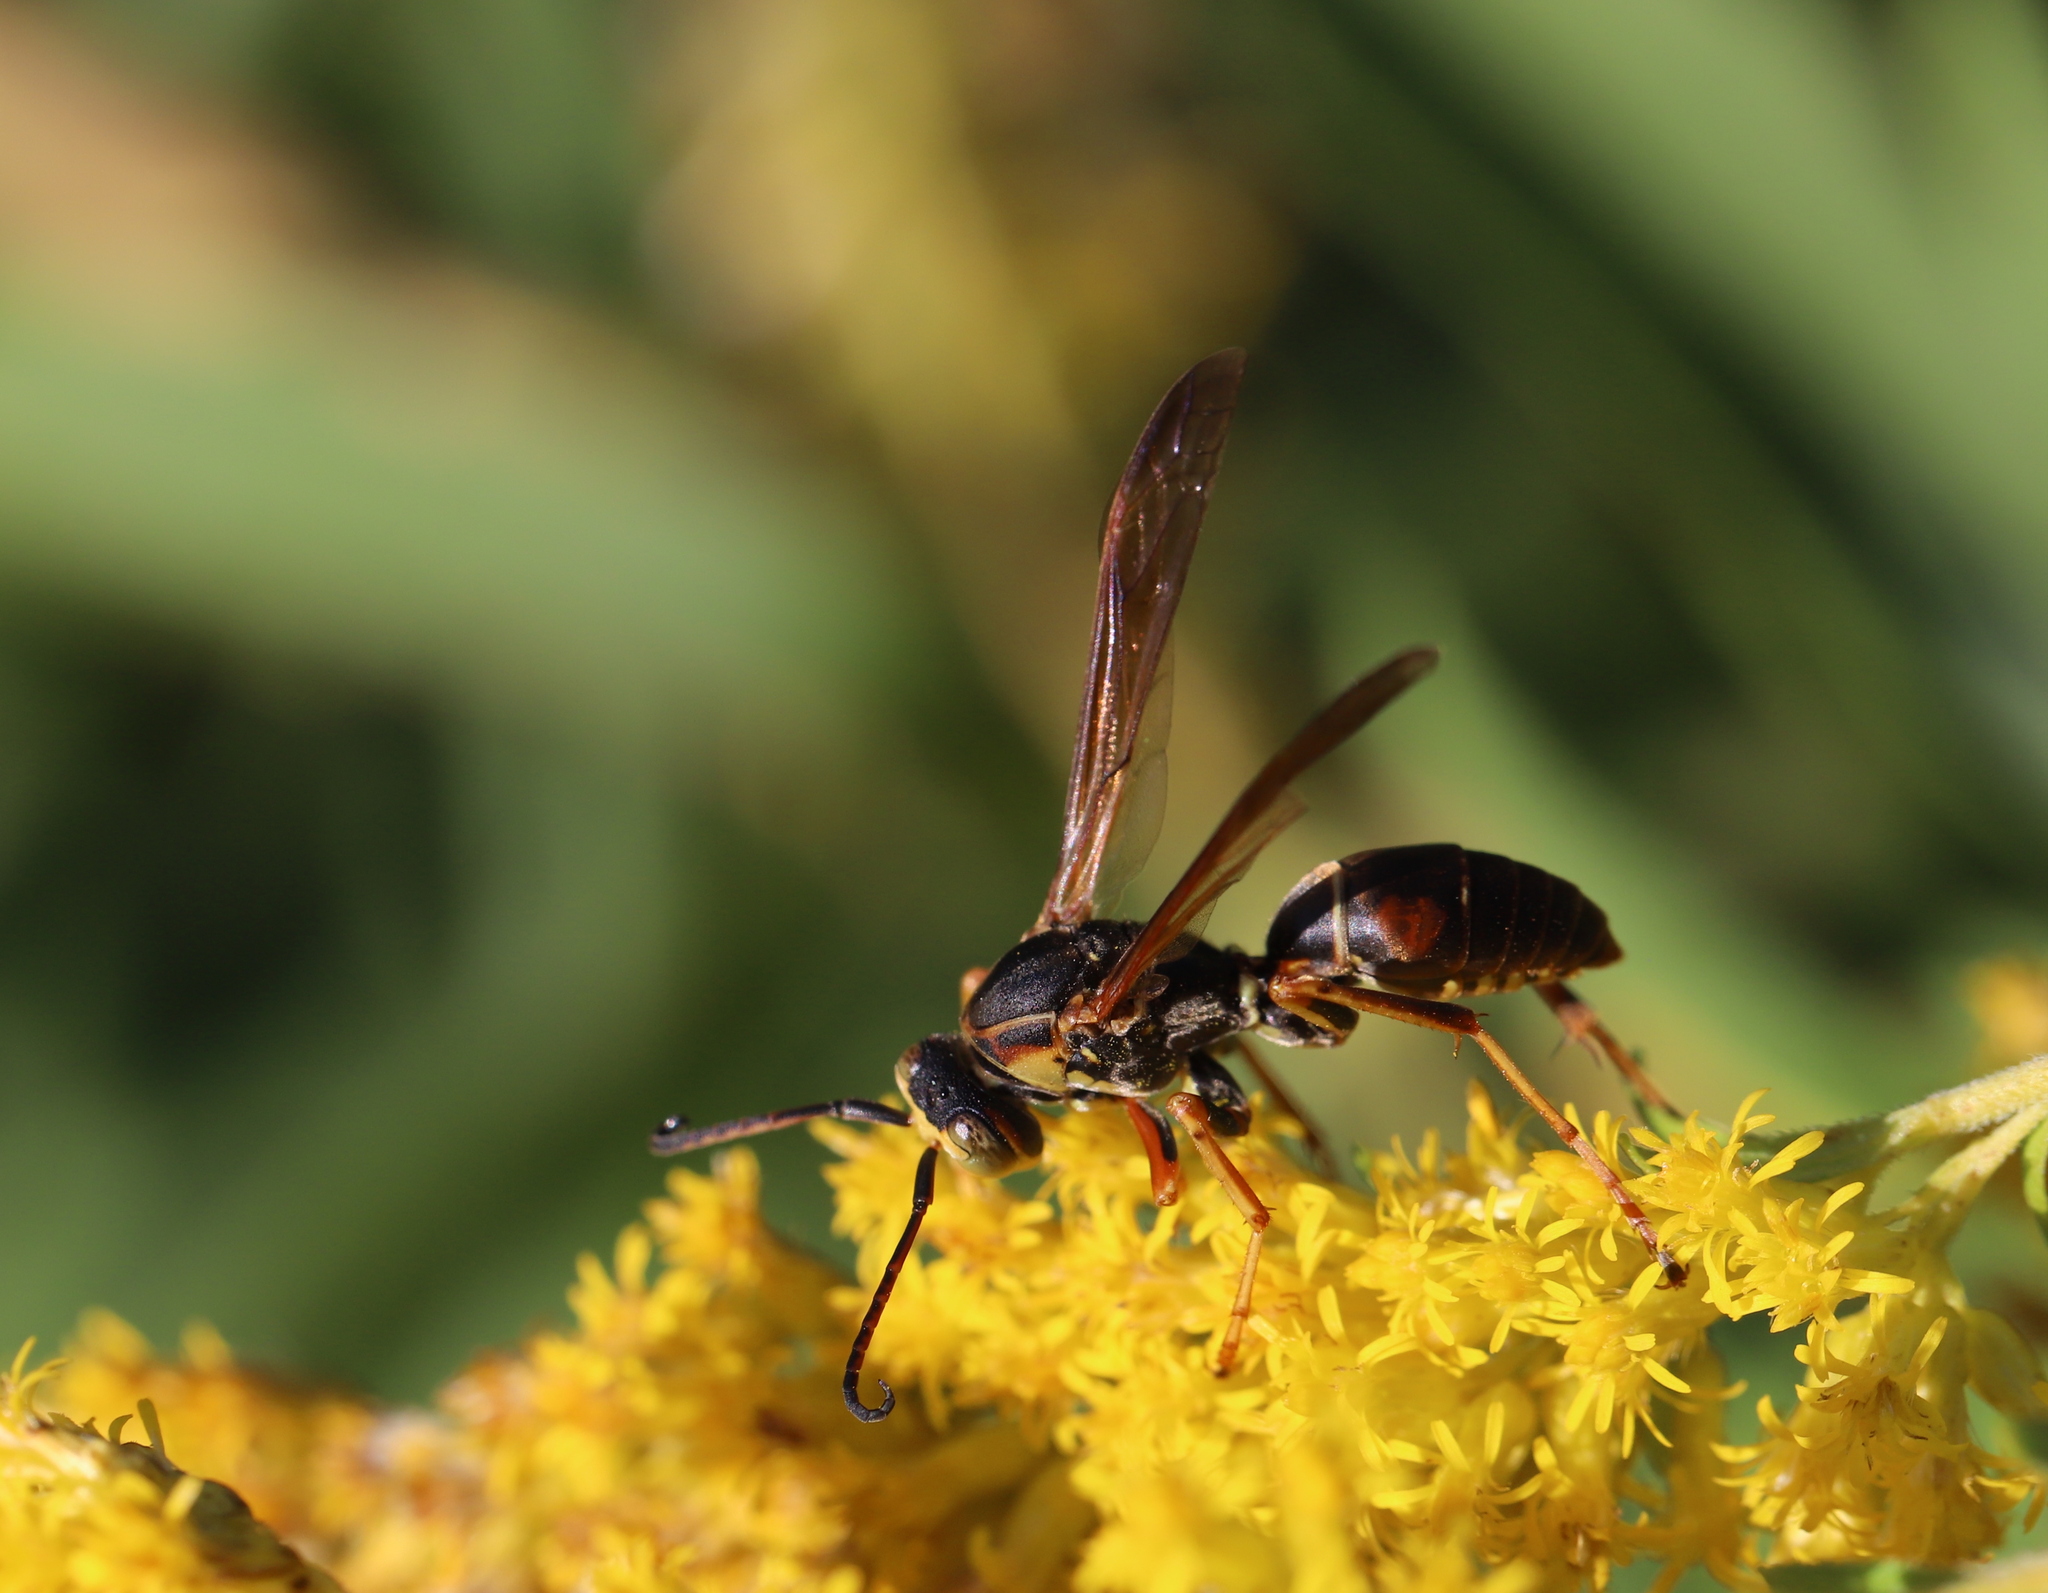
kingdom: Animalia
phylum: Arthropoda
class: Insecta
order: Hymenoptera
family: Eumenidae
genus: Polistes
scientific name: Polistes fuscatus
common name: Dark paper wasp
